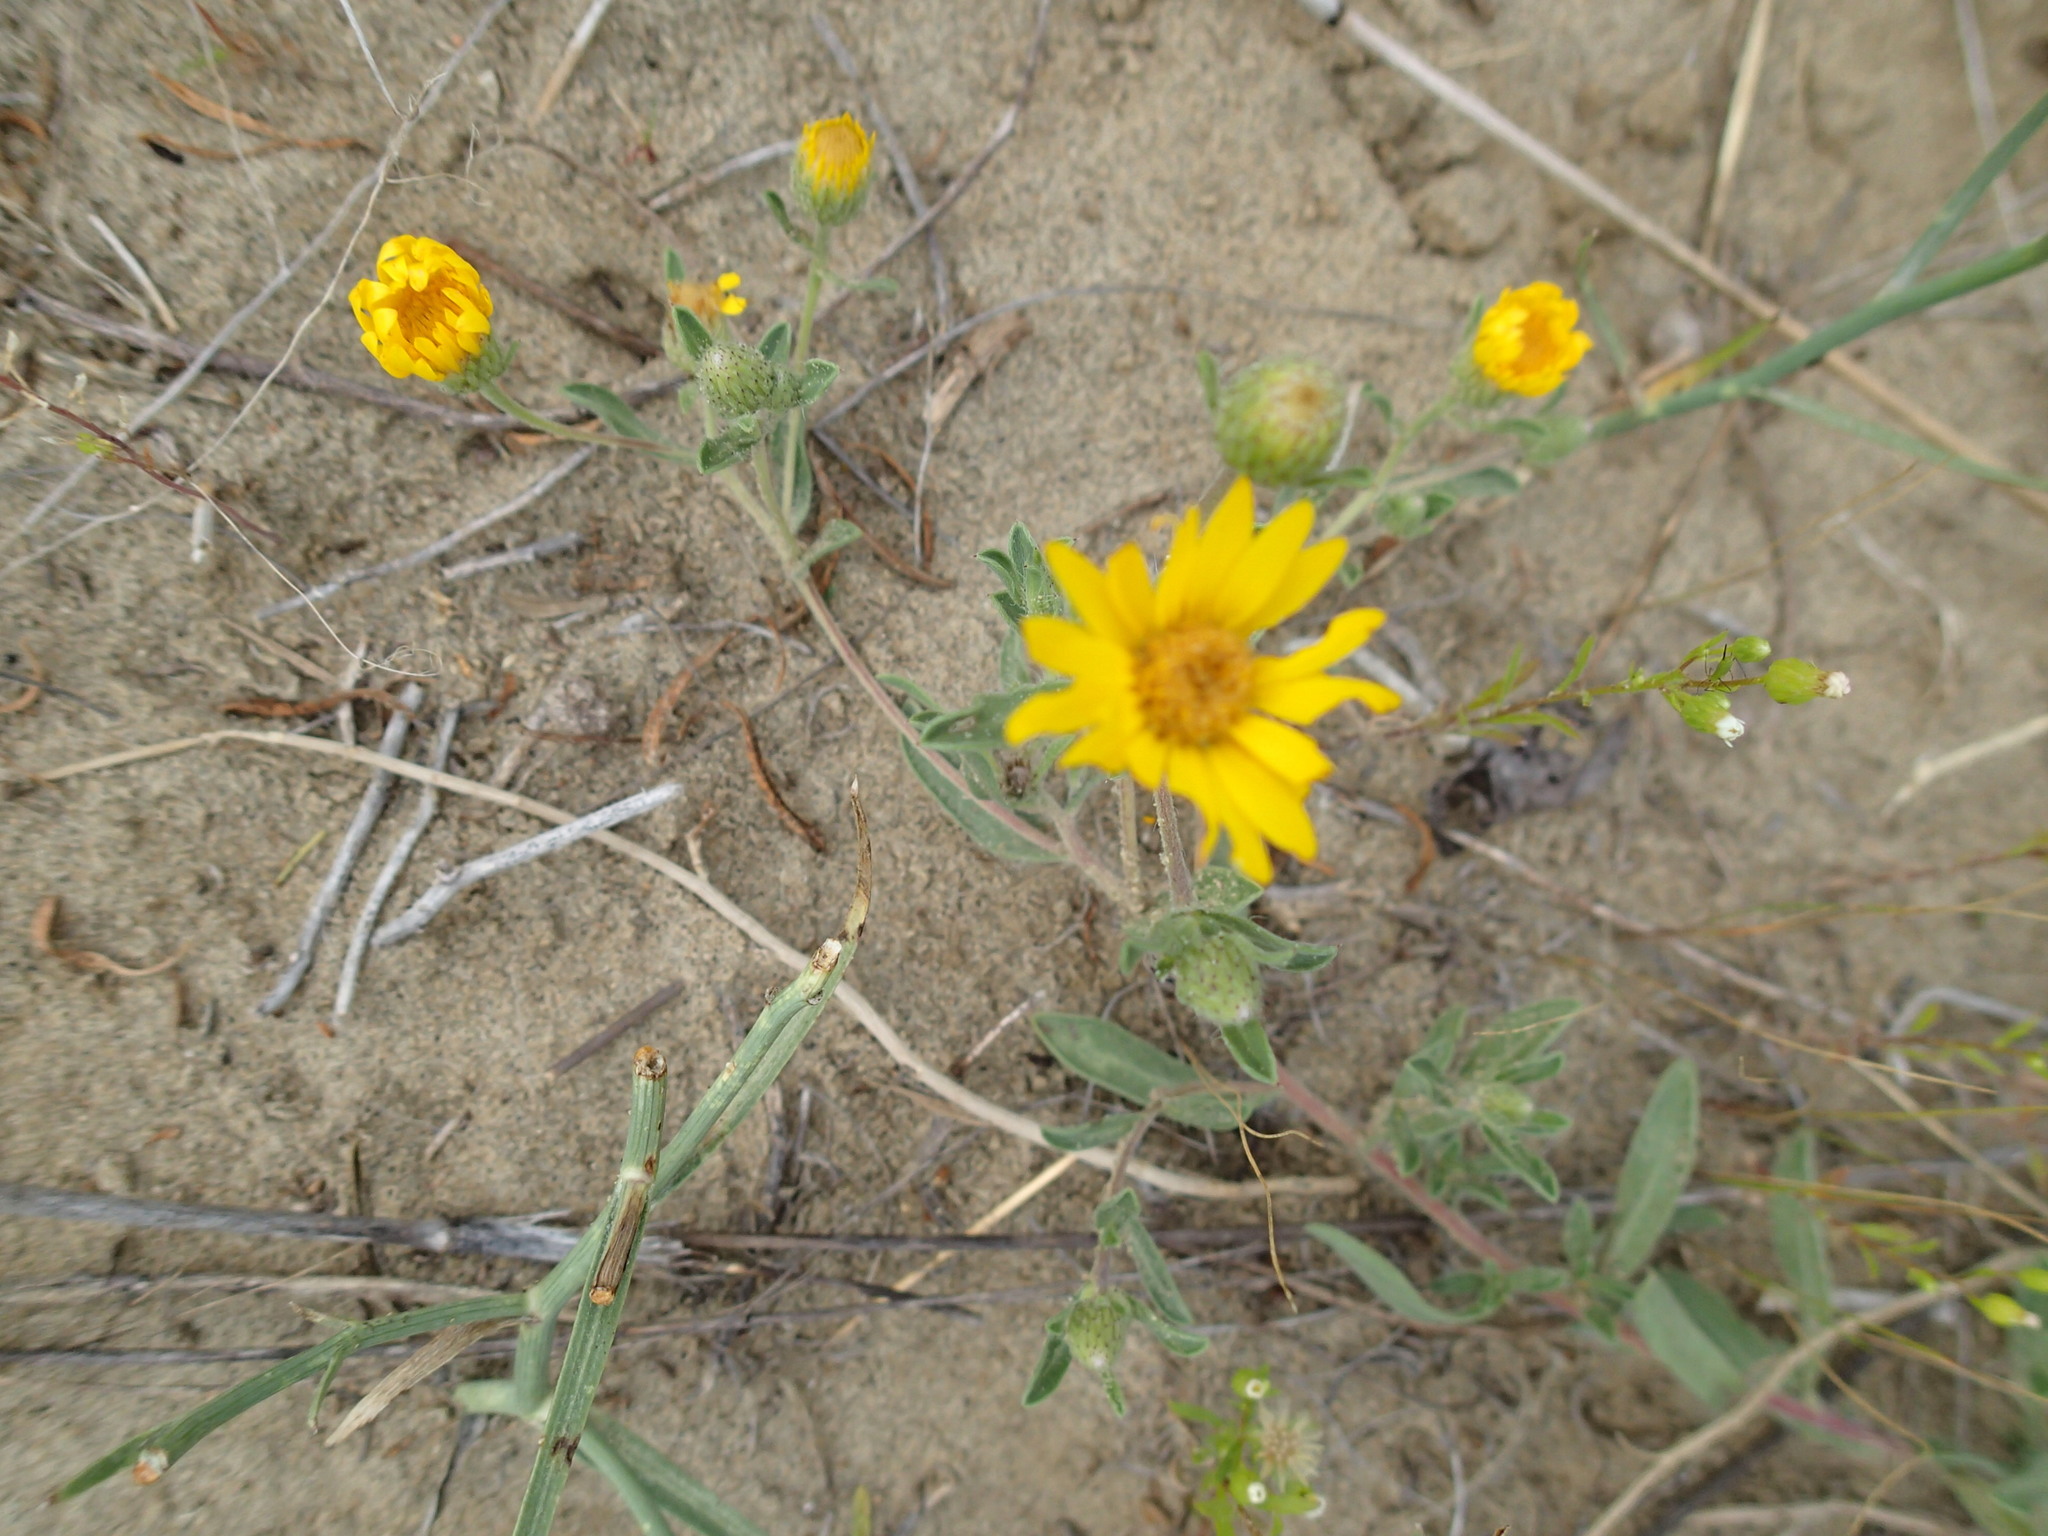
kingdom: Plantae
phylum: Tracheophyta
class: Magnoliopsida
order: Asterales
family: Asteraceae
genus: Heterotheca
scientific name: Heterotheca villosa
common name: Hairy false goldenaster
